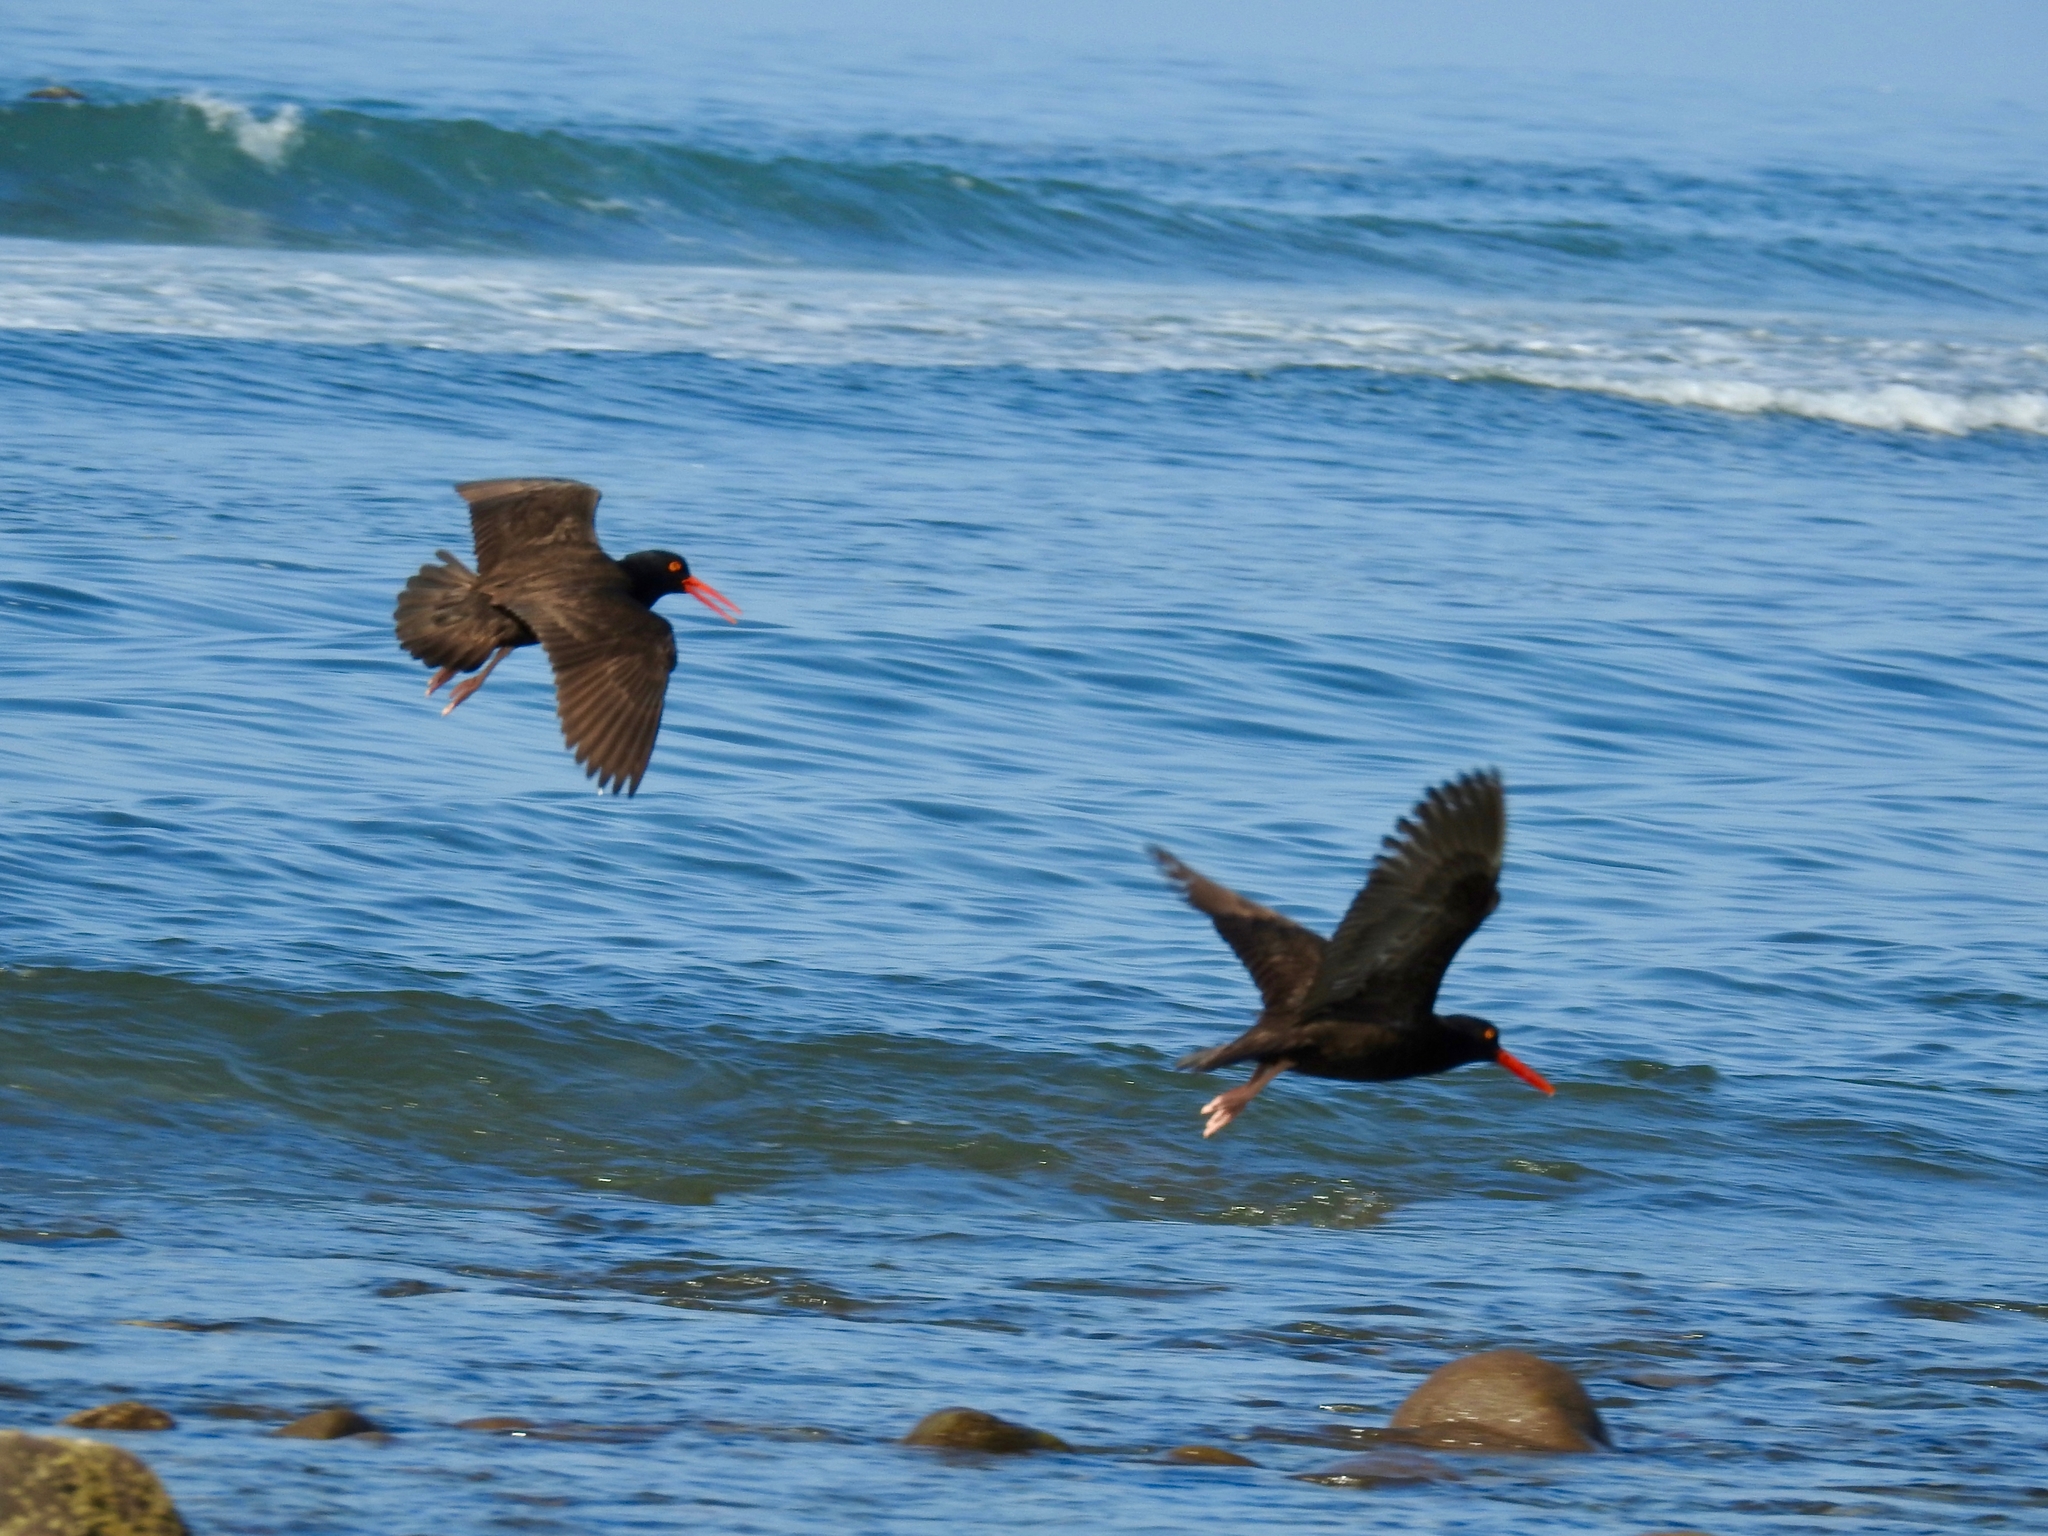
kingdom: Animalia
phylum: Chordata
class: Aves
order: Charadriiformes
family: Haematopodidae
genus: Haematopus
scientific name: Haematopus bachmani
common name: Black oystercatcher
